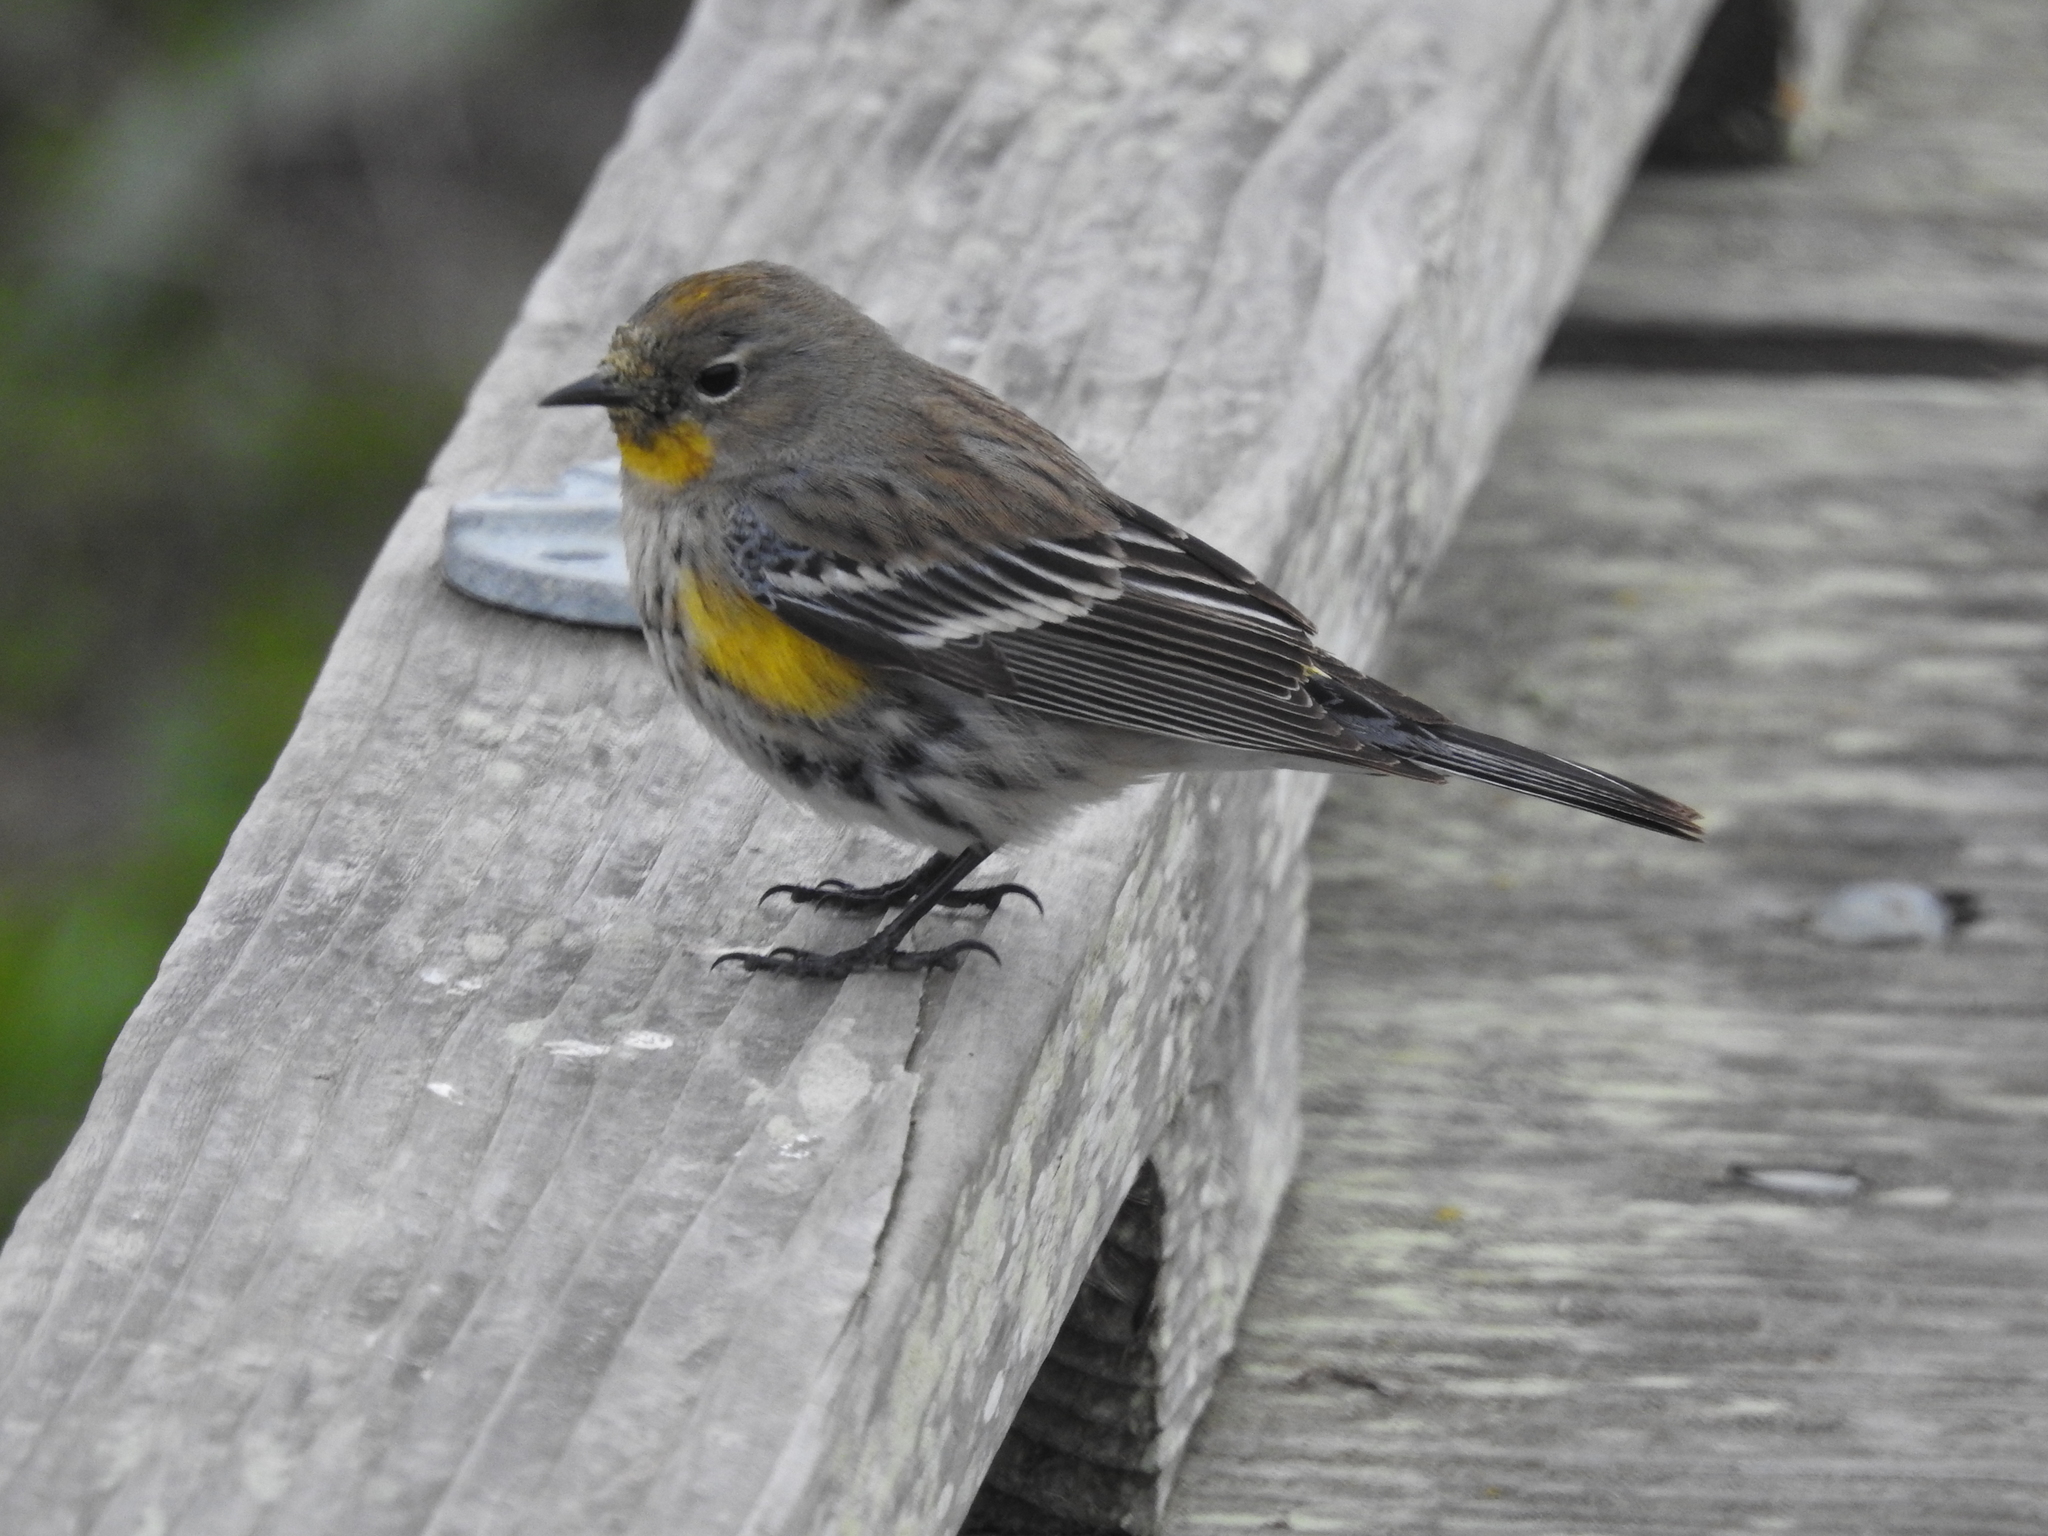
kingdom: Animalia
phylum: Chordata
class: Aves
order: Passeriformes
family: Parulidae
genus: Setophaga
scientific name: Setophaga coronata
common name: Myrtle warbler
